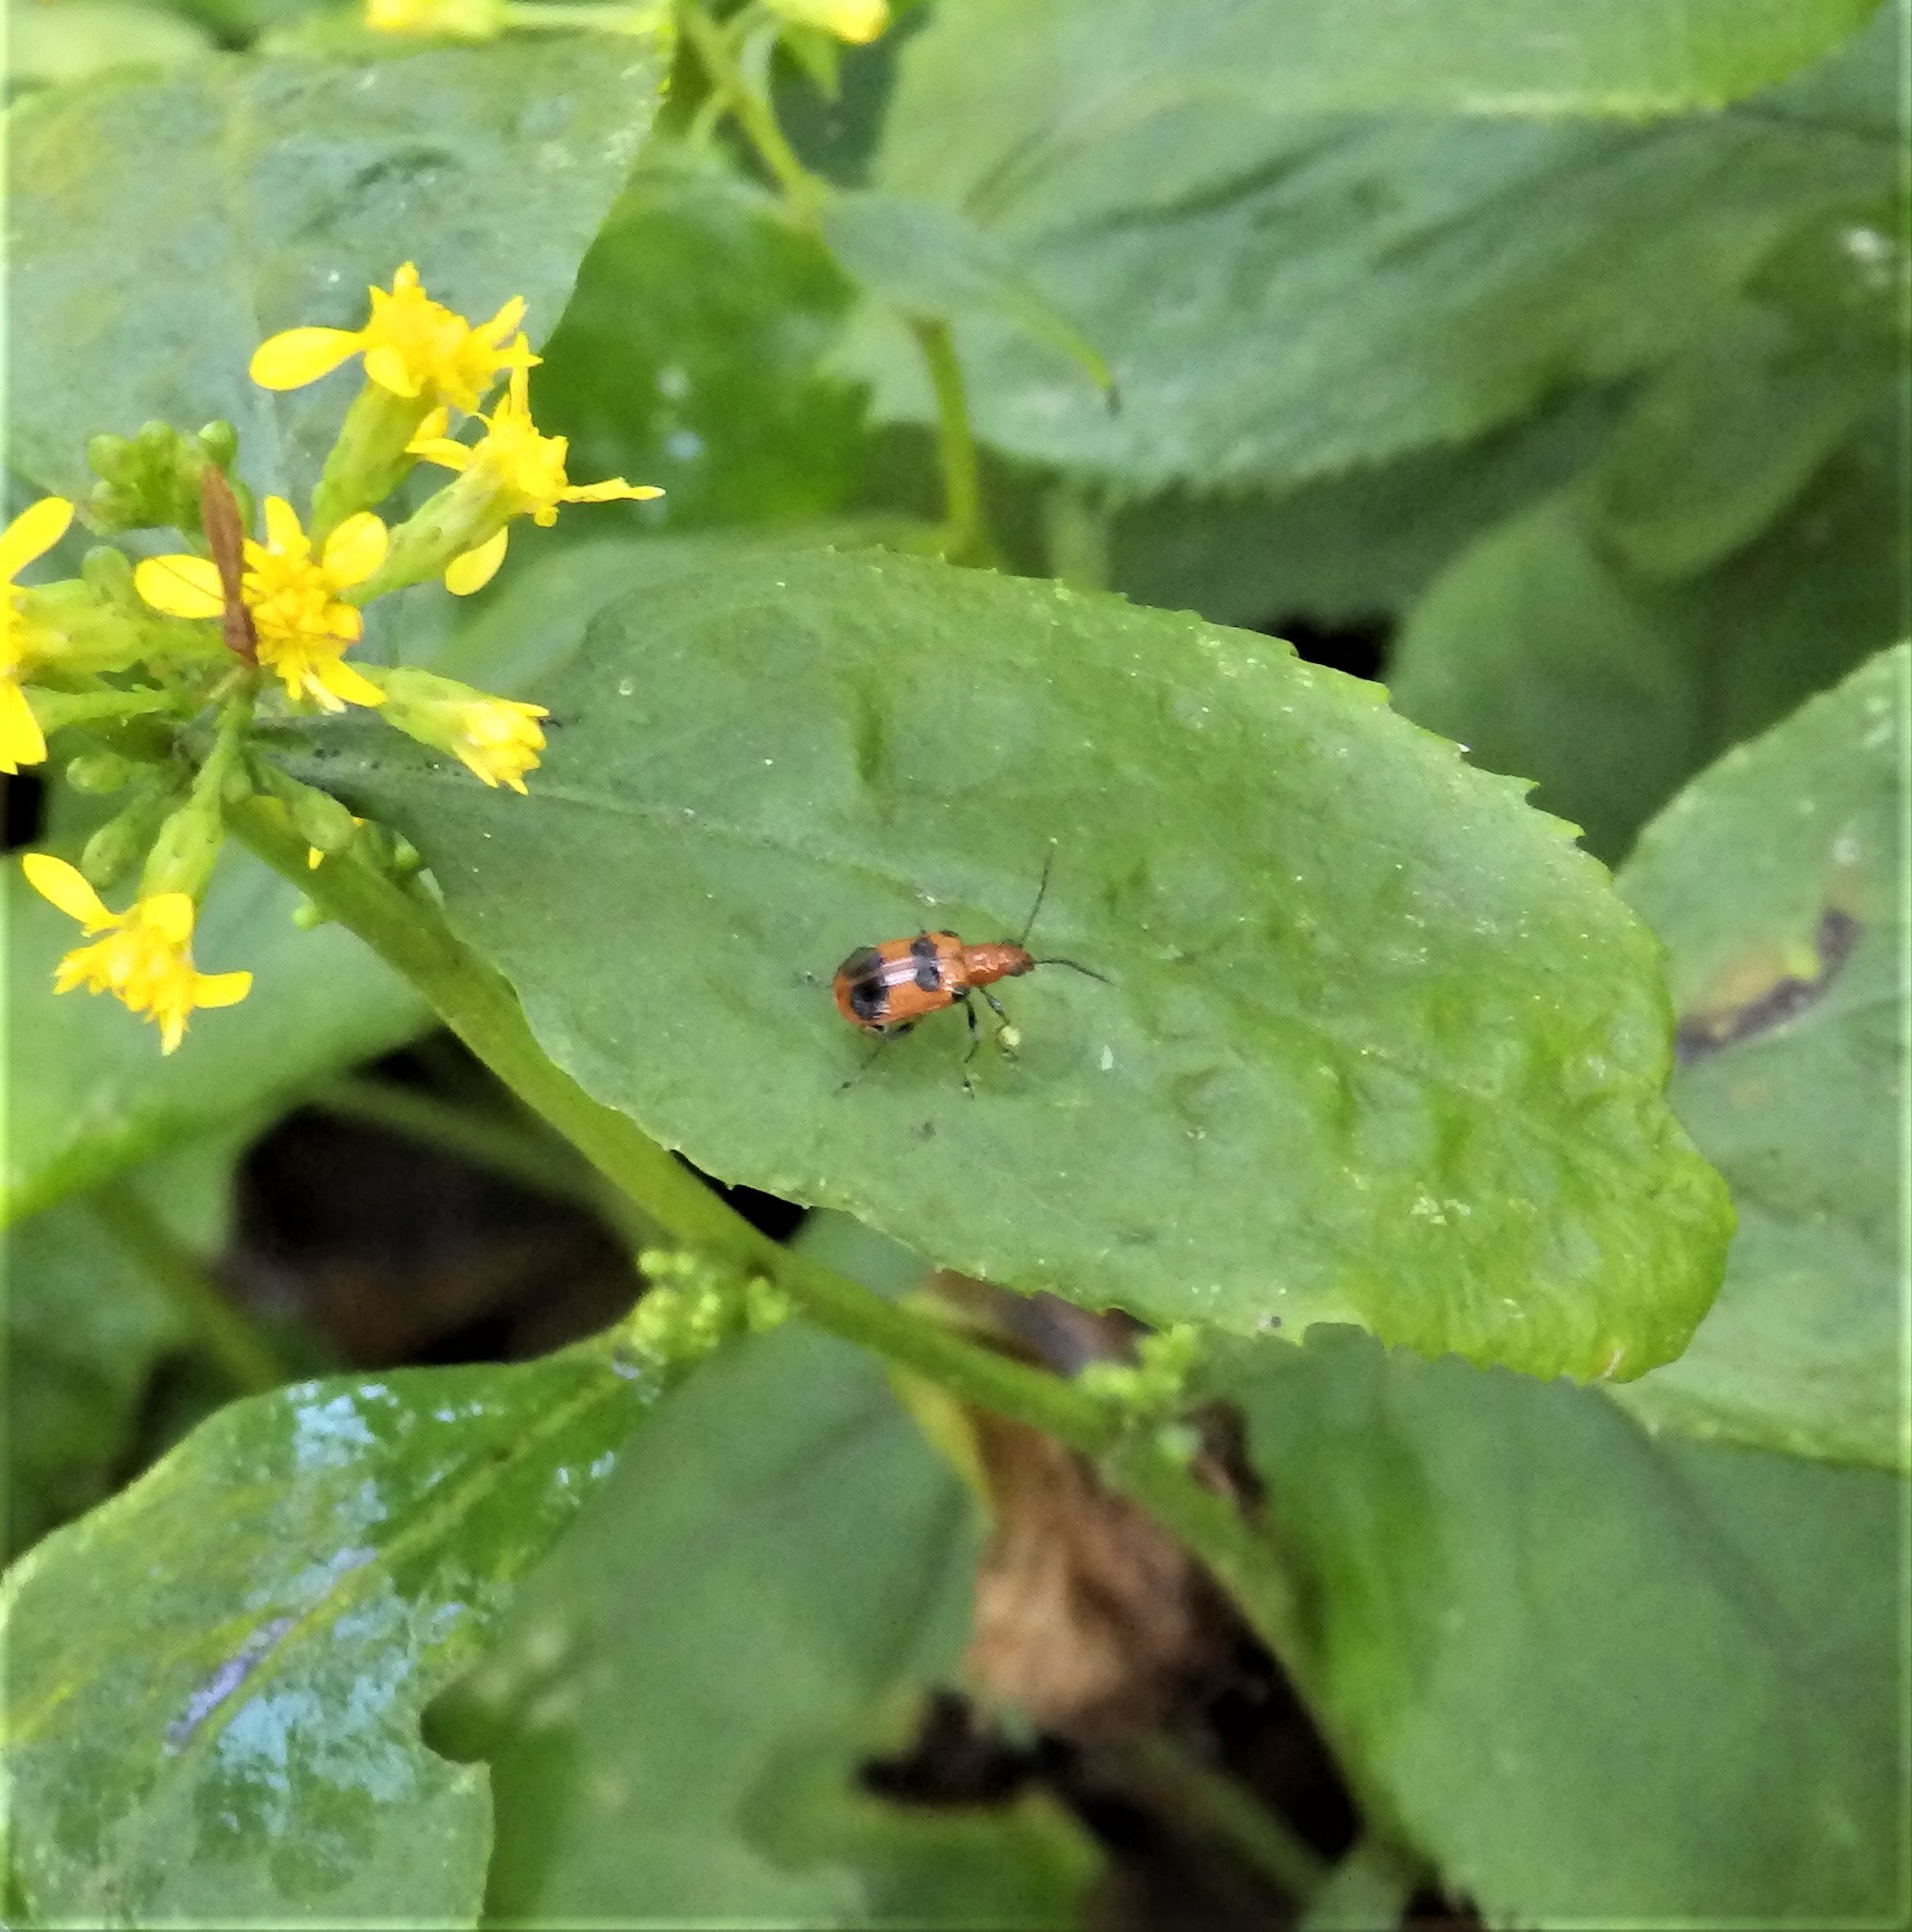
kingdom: Animalia
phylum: Arthropoda
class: Insecta
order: Coleoptera
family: Chrysomelidae
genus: Neolema
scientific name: Neolema sexpunctata
